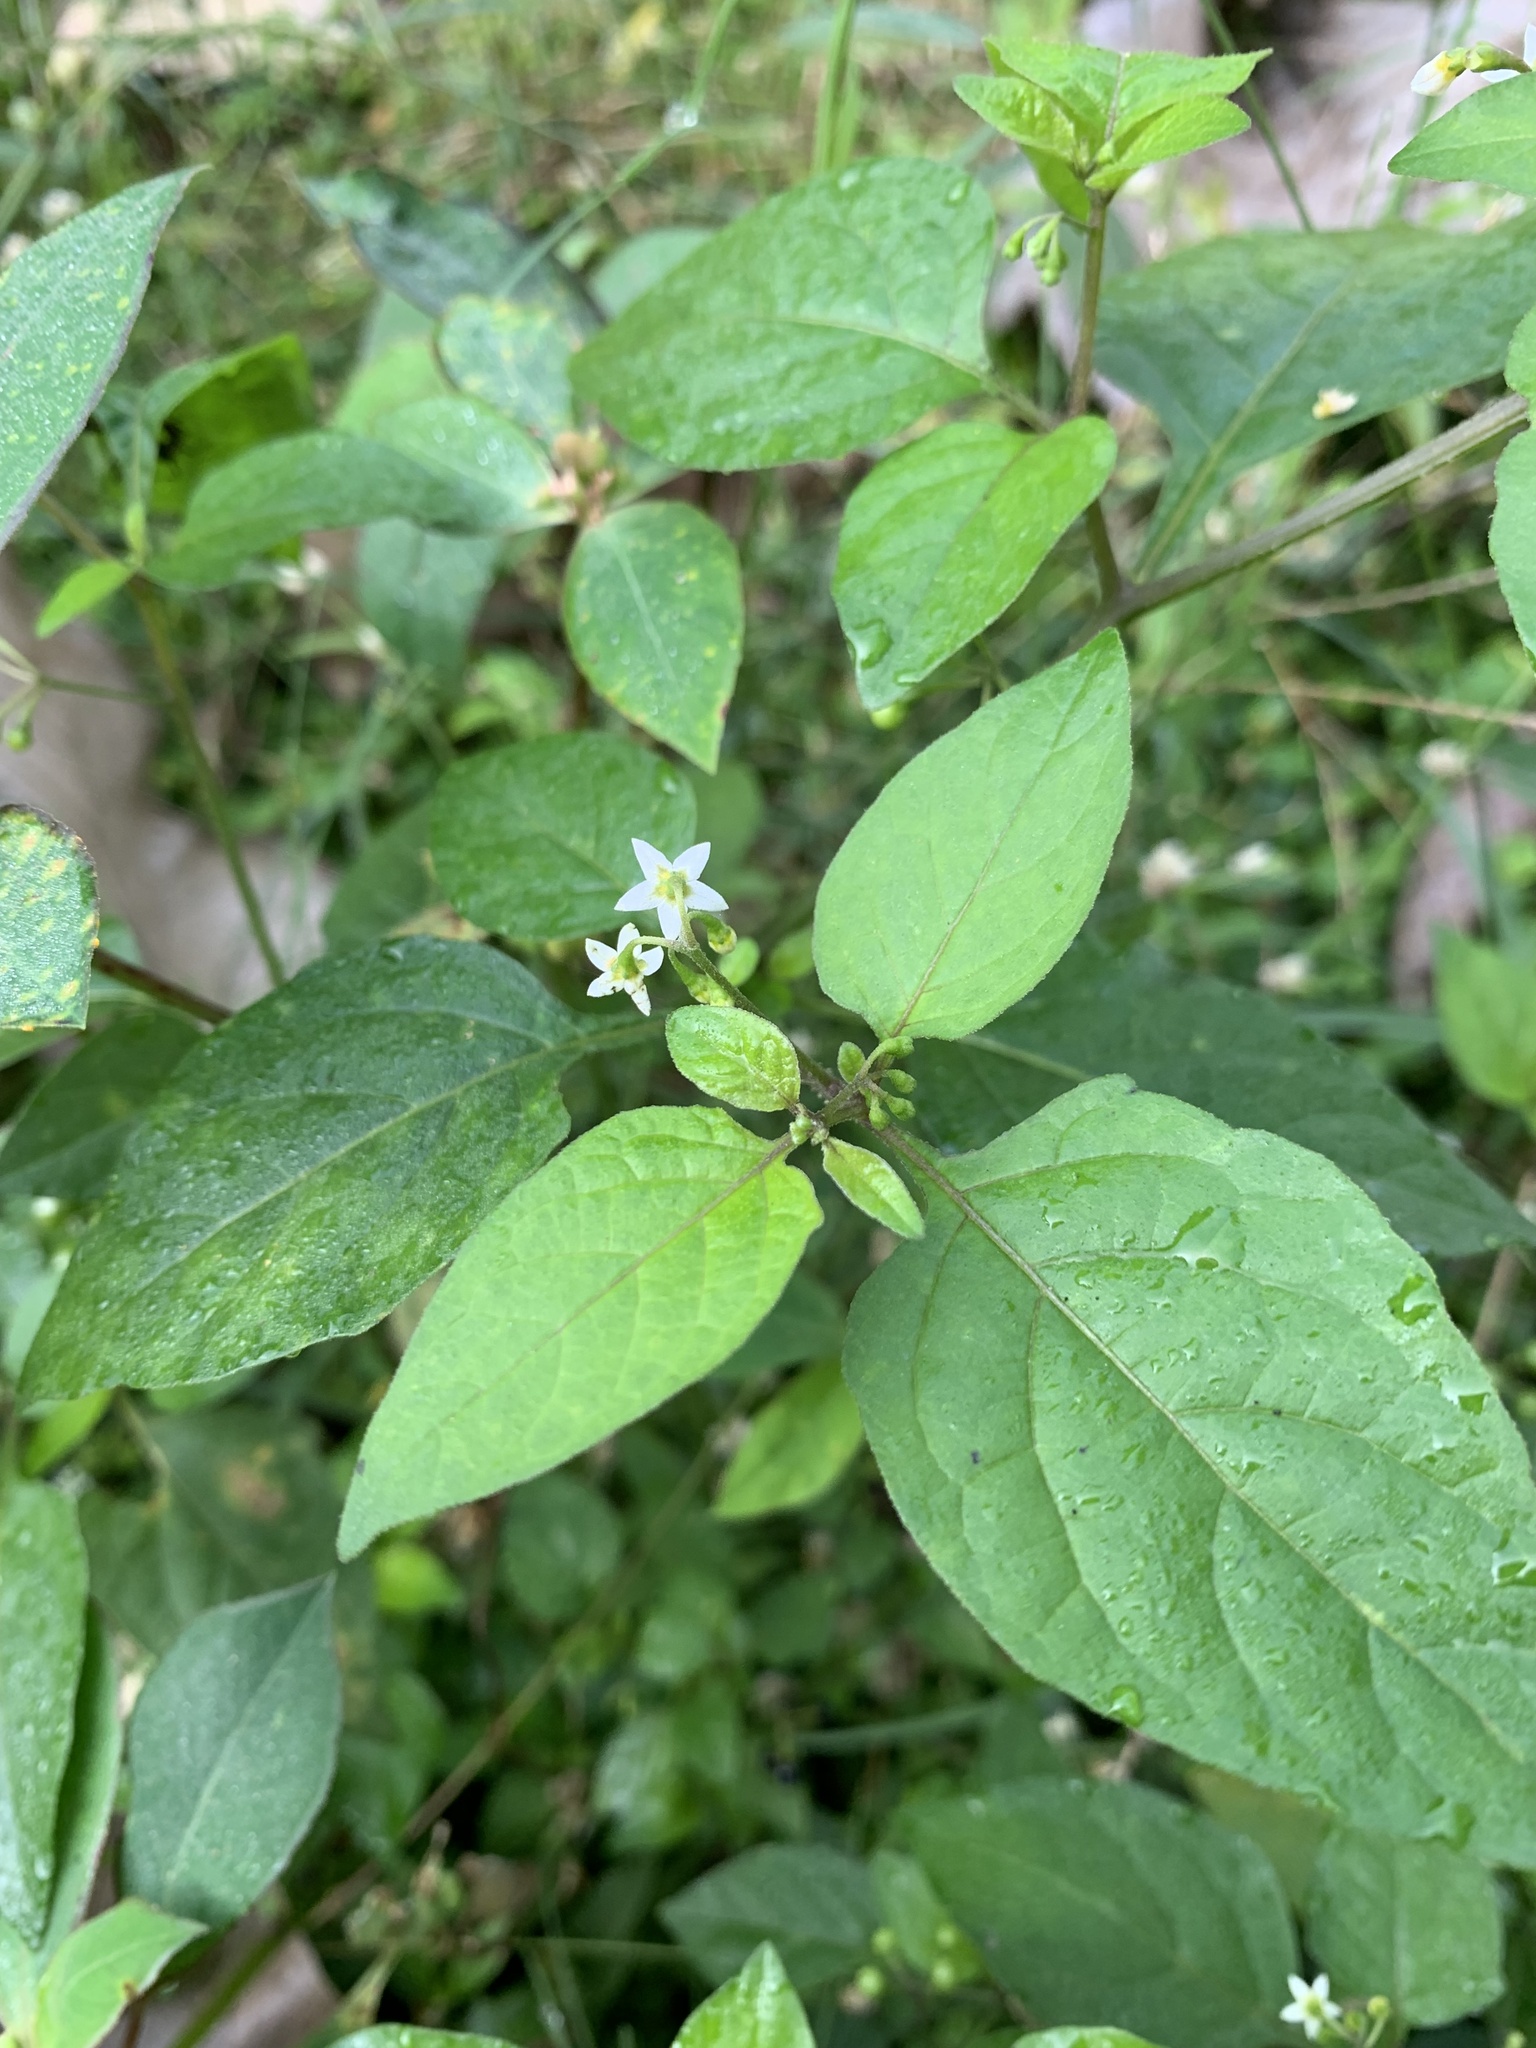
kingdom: Plantae
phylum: Tracheophyta
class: Magnoliopsida
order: Solanales
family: Solanaceae
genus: Solanum
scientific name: Solanum americanum
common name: American black nightshade
